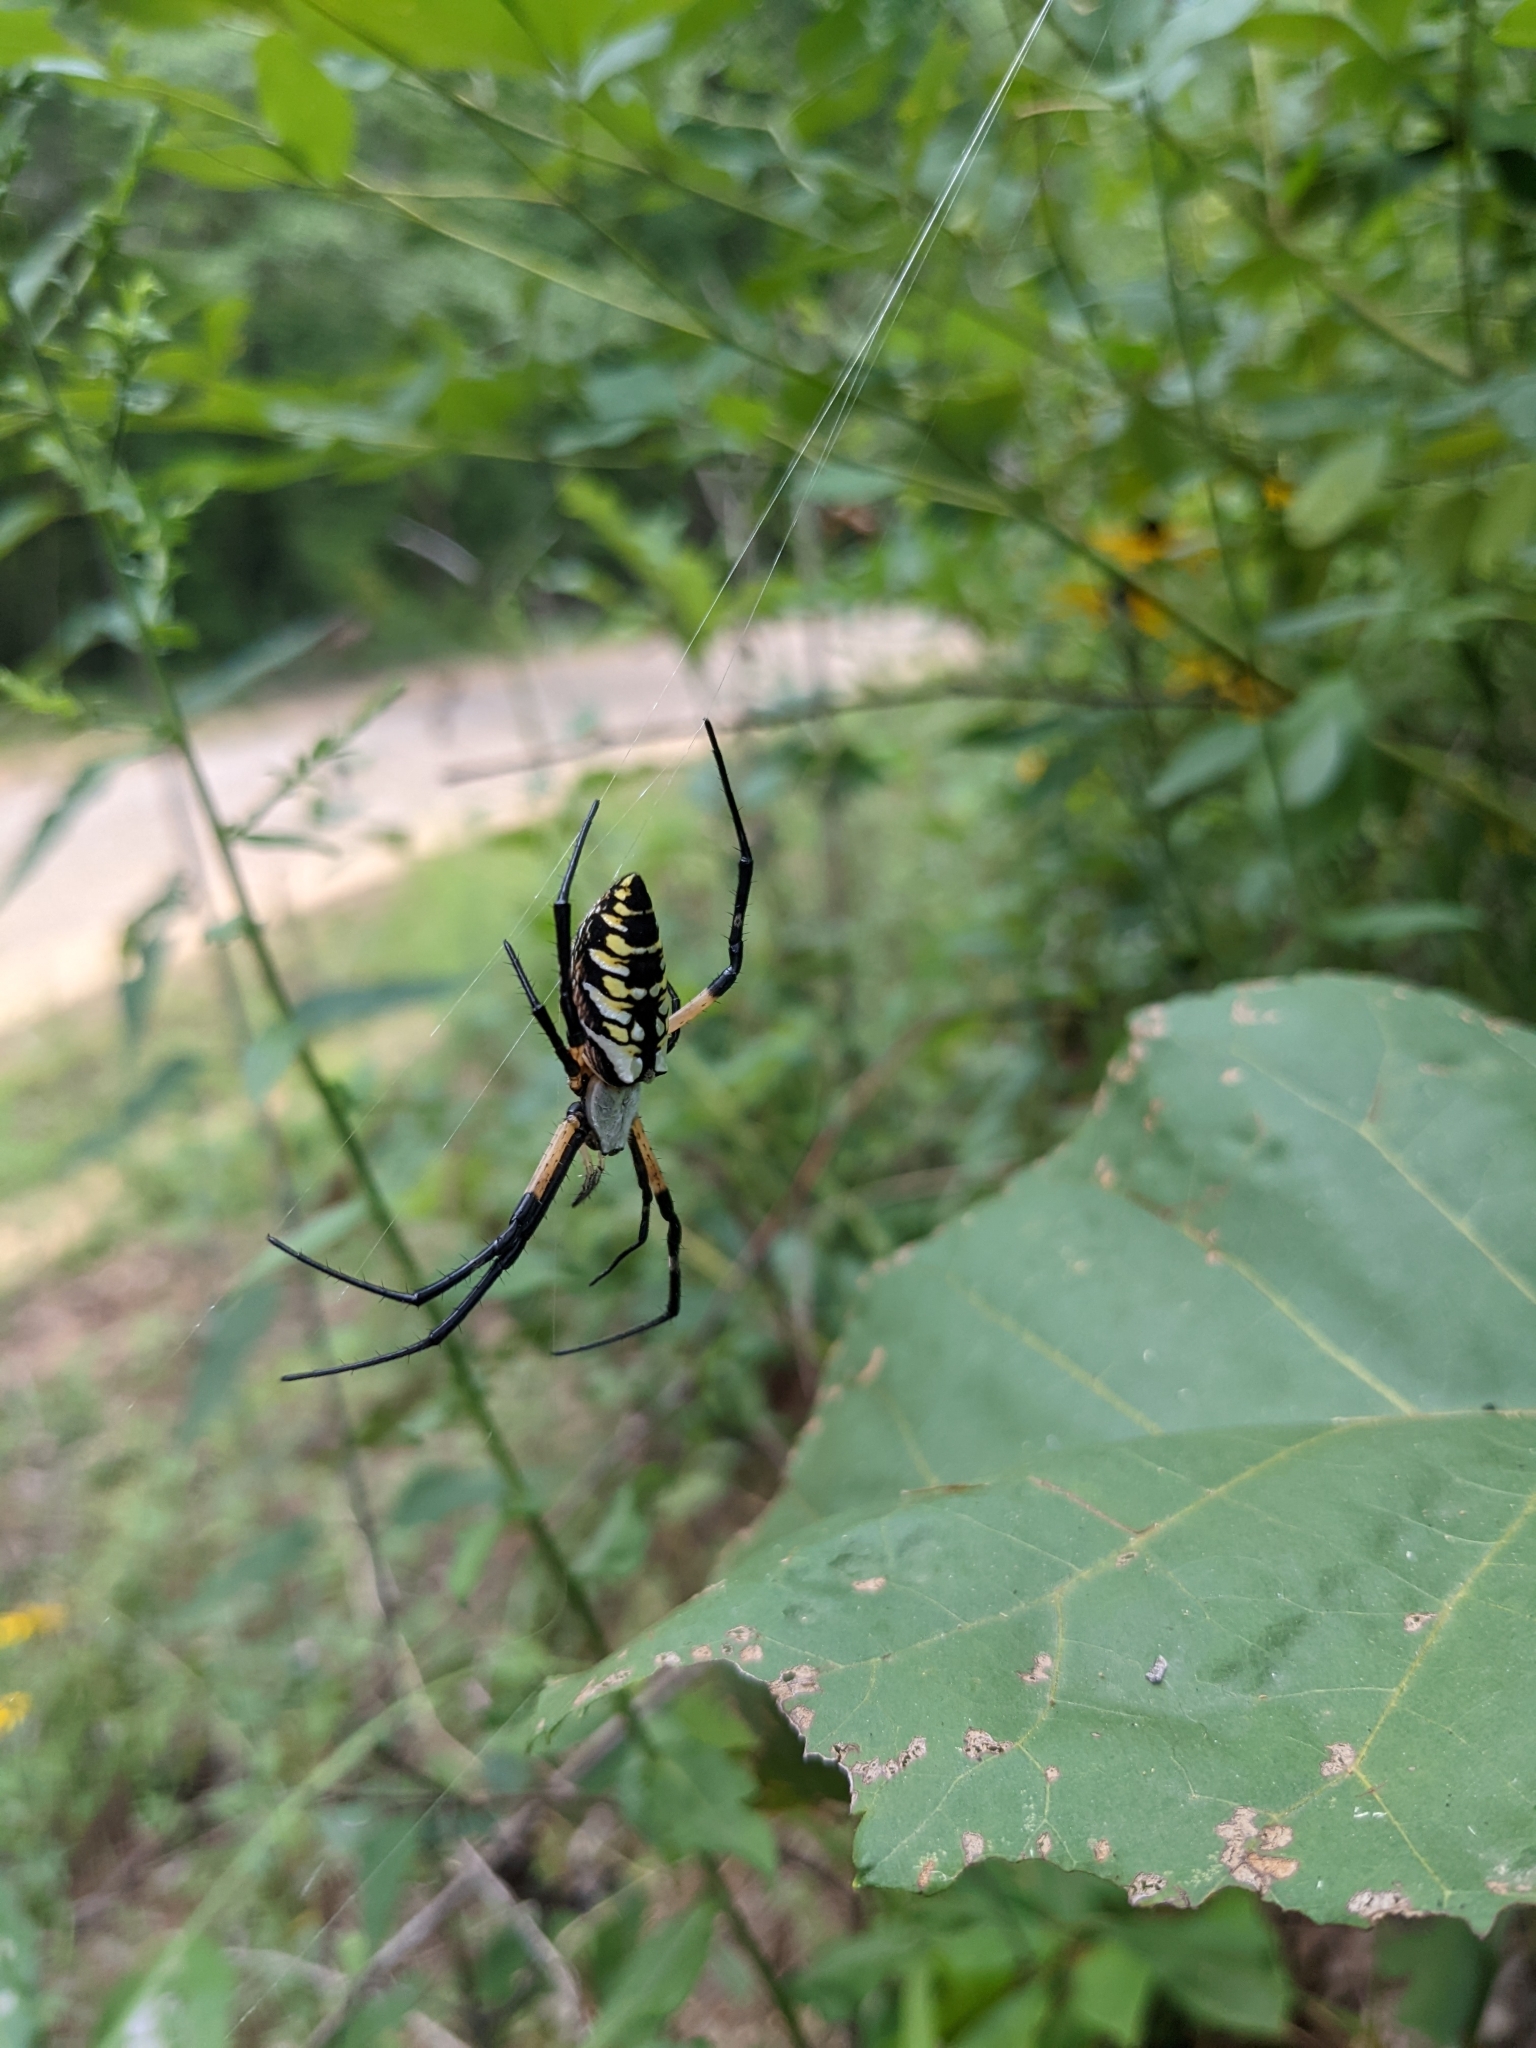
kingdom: Animalia
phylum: Arthropoda
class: Arachnida
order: Araneae
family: Araneidae
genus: Argiope
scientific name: Argiope aurantia
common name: Orb weavers
